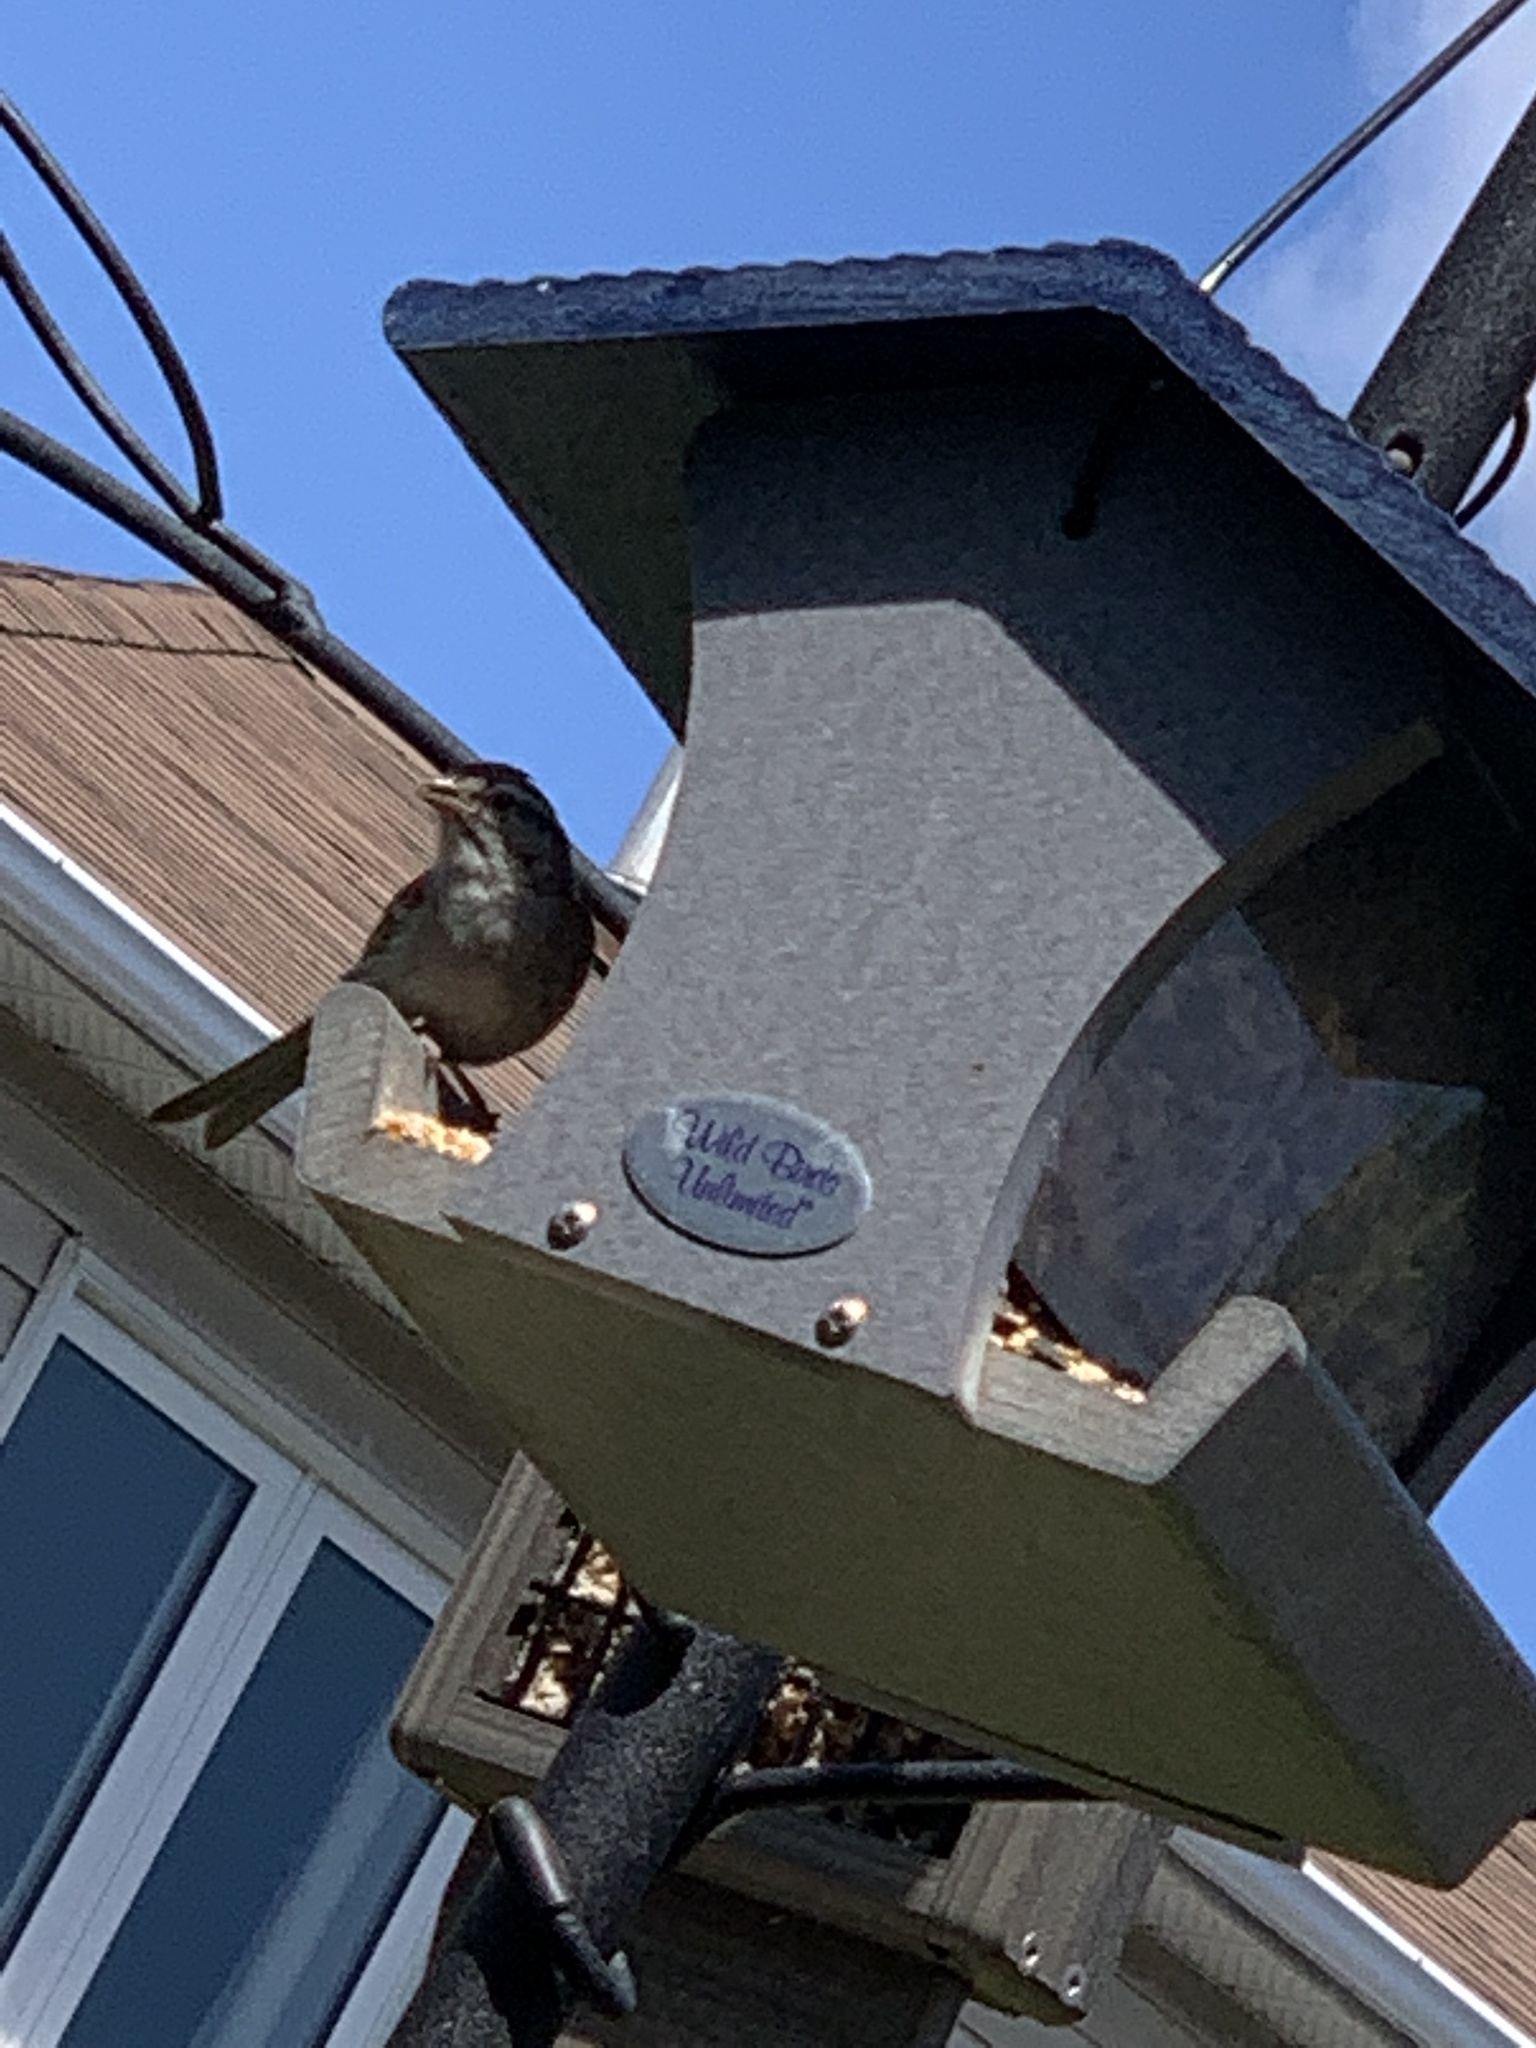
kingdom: Animalia
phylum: Chordata
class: Aves
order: Passeriformes
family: Passerellidae
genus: Spizella
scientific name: Spizella passerina
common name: Chipping sparrow
